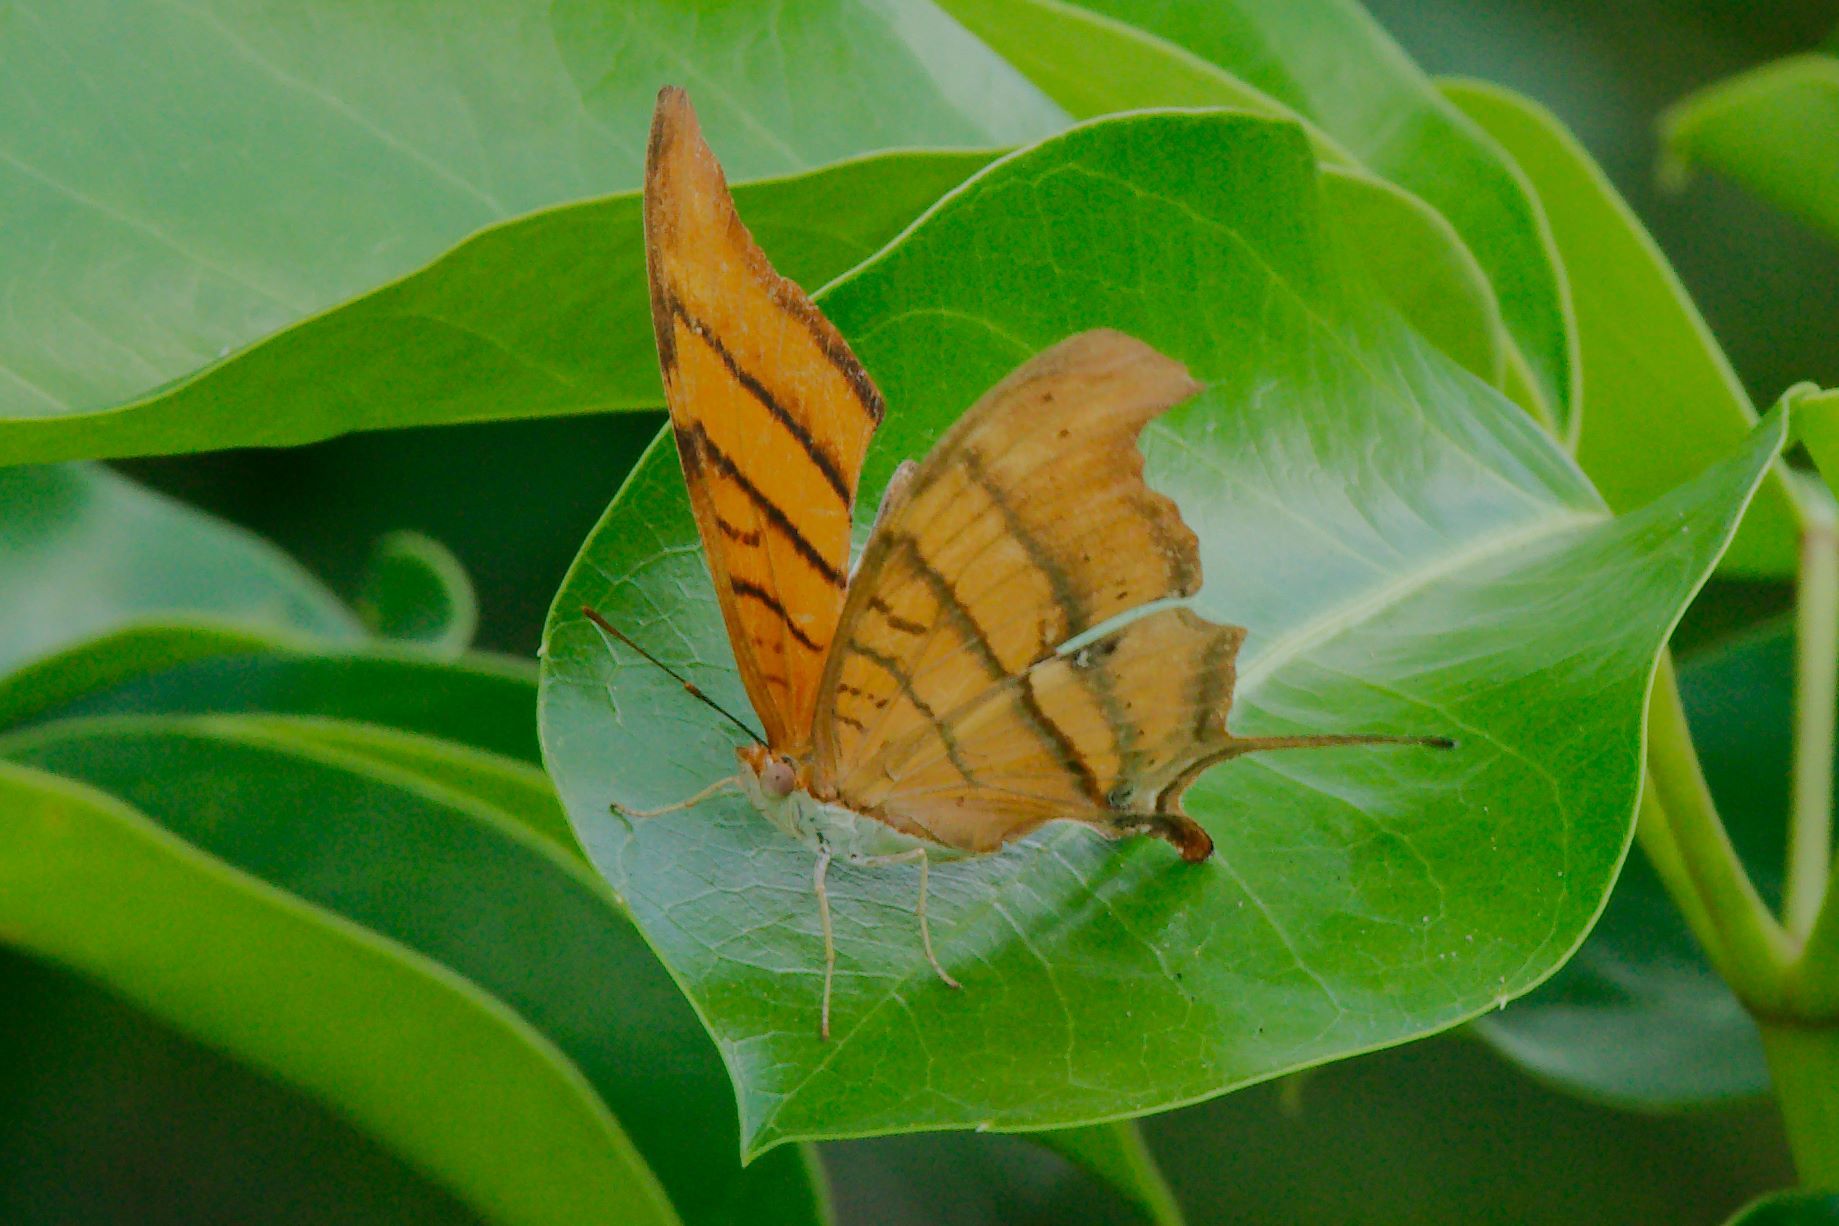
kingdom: Animalia
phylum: Arthropoda
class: Insecta
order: Lepidoptera
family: Nymphalidae
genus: Marpesia
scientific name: Marpesia petreus
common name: Red dagger wing
